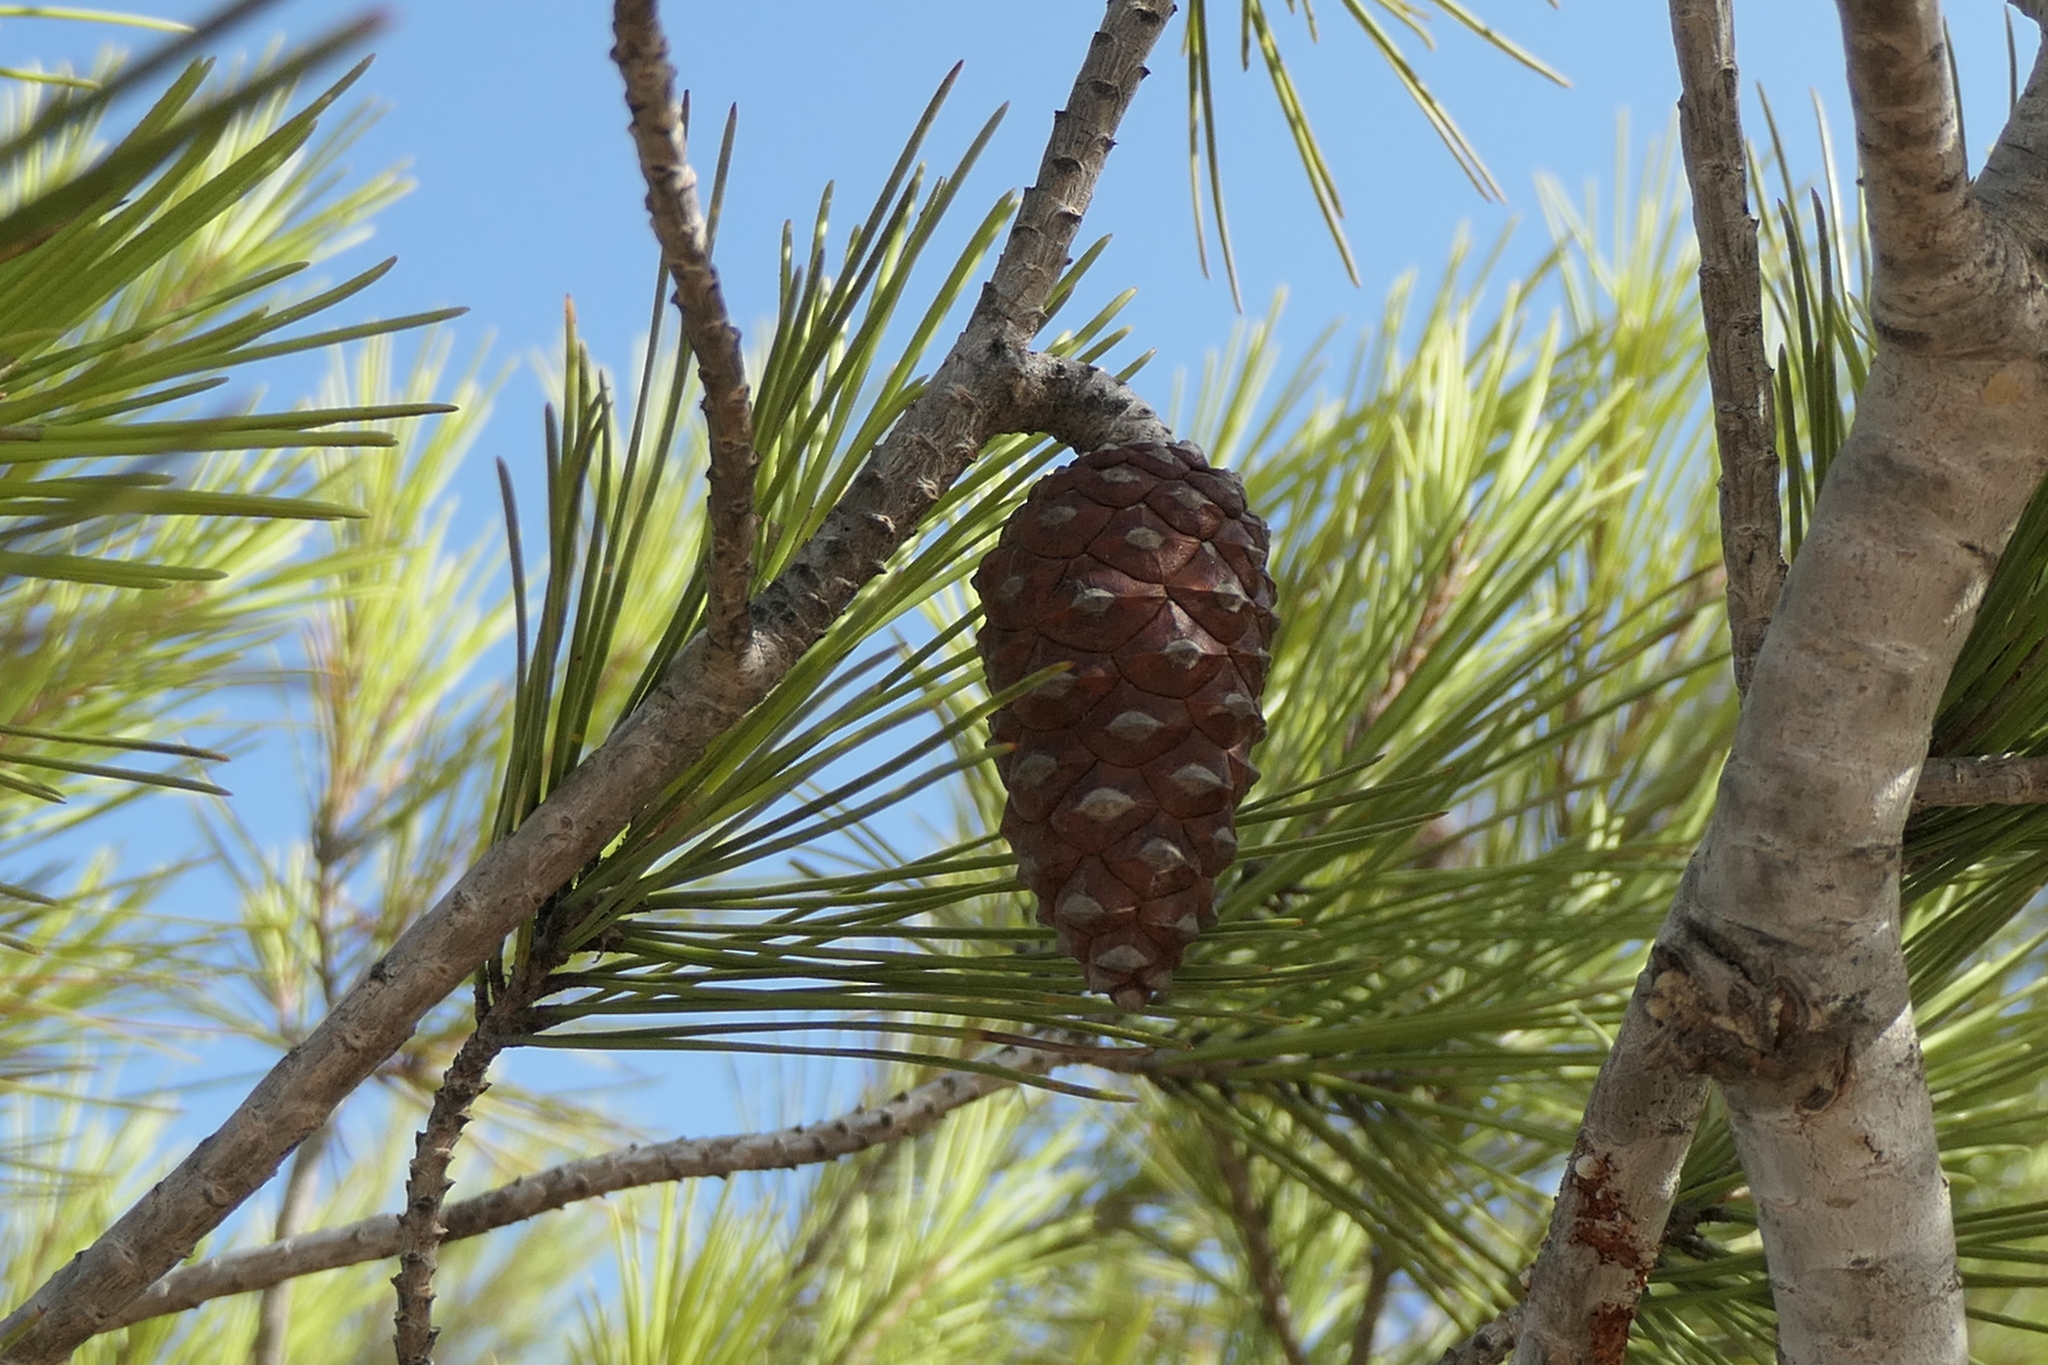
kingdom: Plantae
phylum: Tracheophyta
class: Pinopsida
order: Pinales
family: Pinaceae
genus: Pinus
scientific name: Pinus halepensis
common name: Aleppo pine
